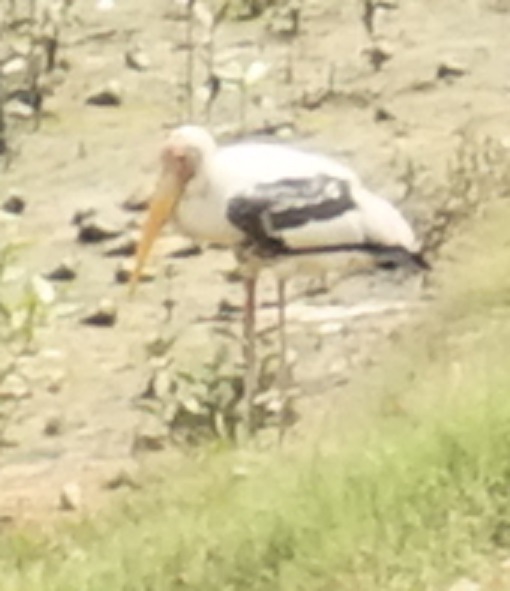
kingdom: Animalia
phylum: Chordata
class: Aves
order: Ciconiiformes
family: Ciconiidae
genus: Mycteria
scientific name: Mycteria leucocephala
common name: Painted stork
